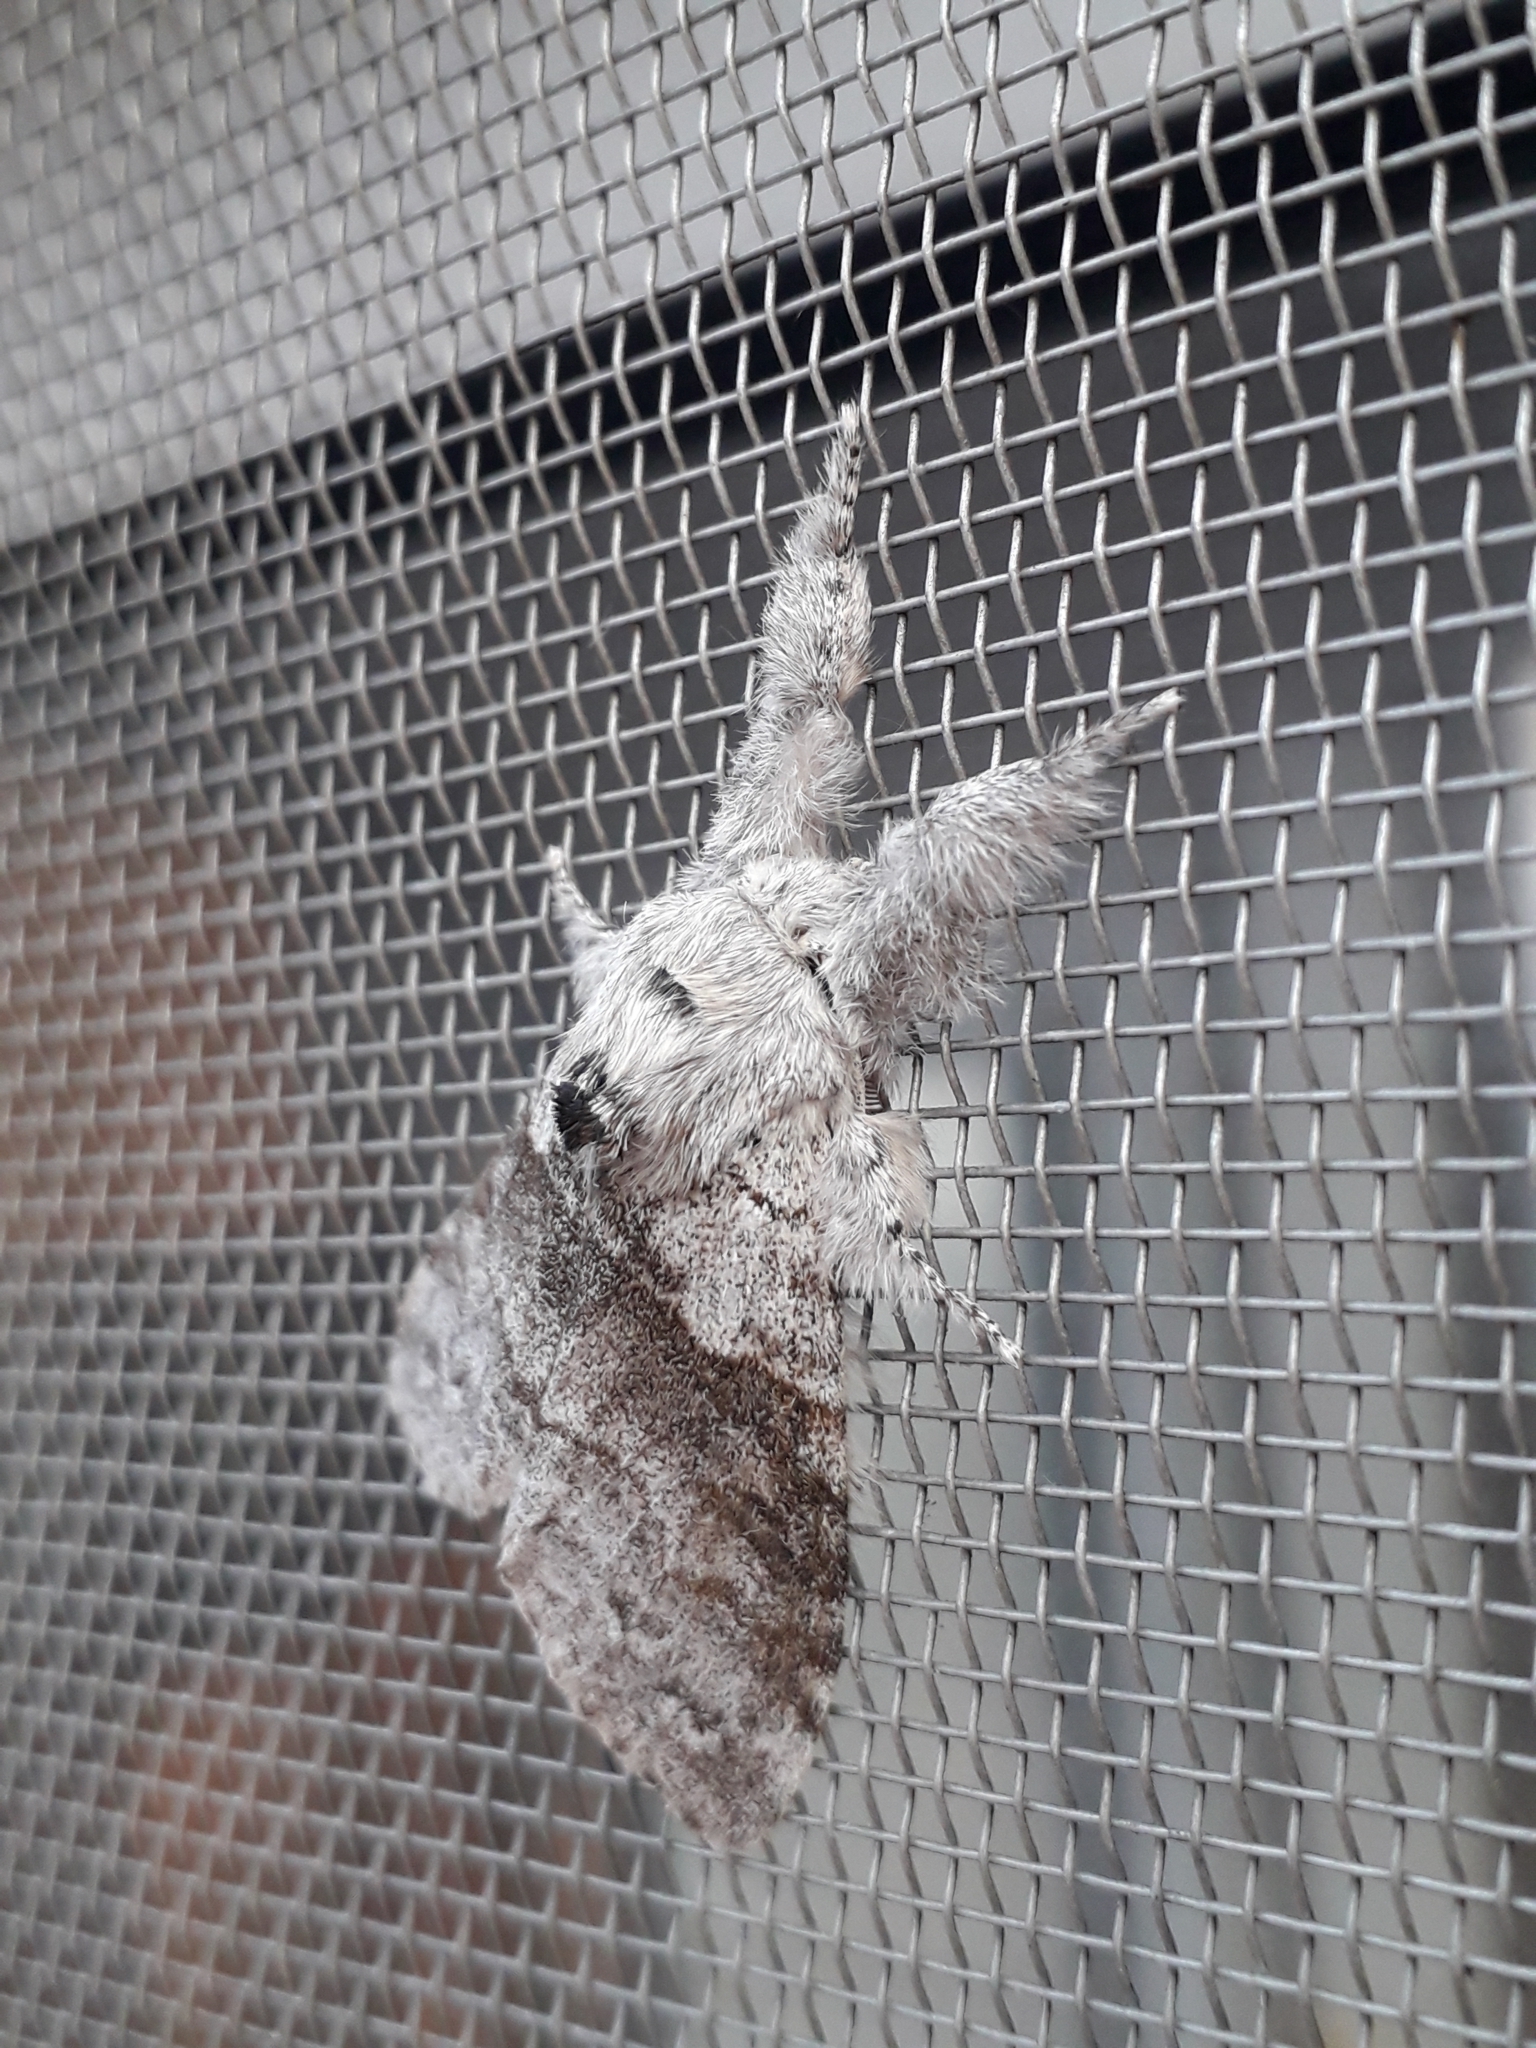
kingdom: Animalia
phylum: Arthropoda
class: Insecta
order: Lepidoptera
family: Erebidae
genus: Calliteara
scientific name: Calliteara pudibunda
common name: Pale tussock
